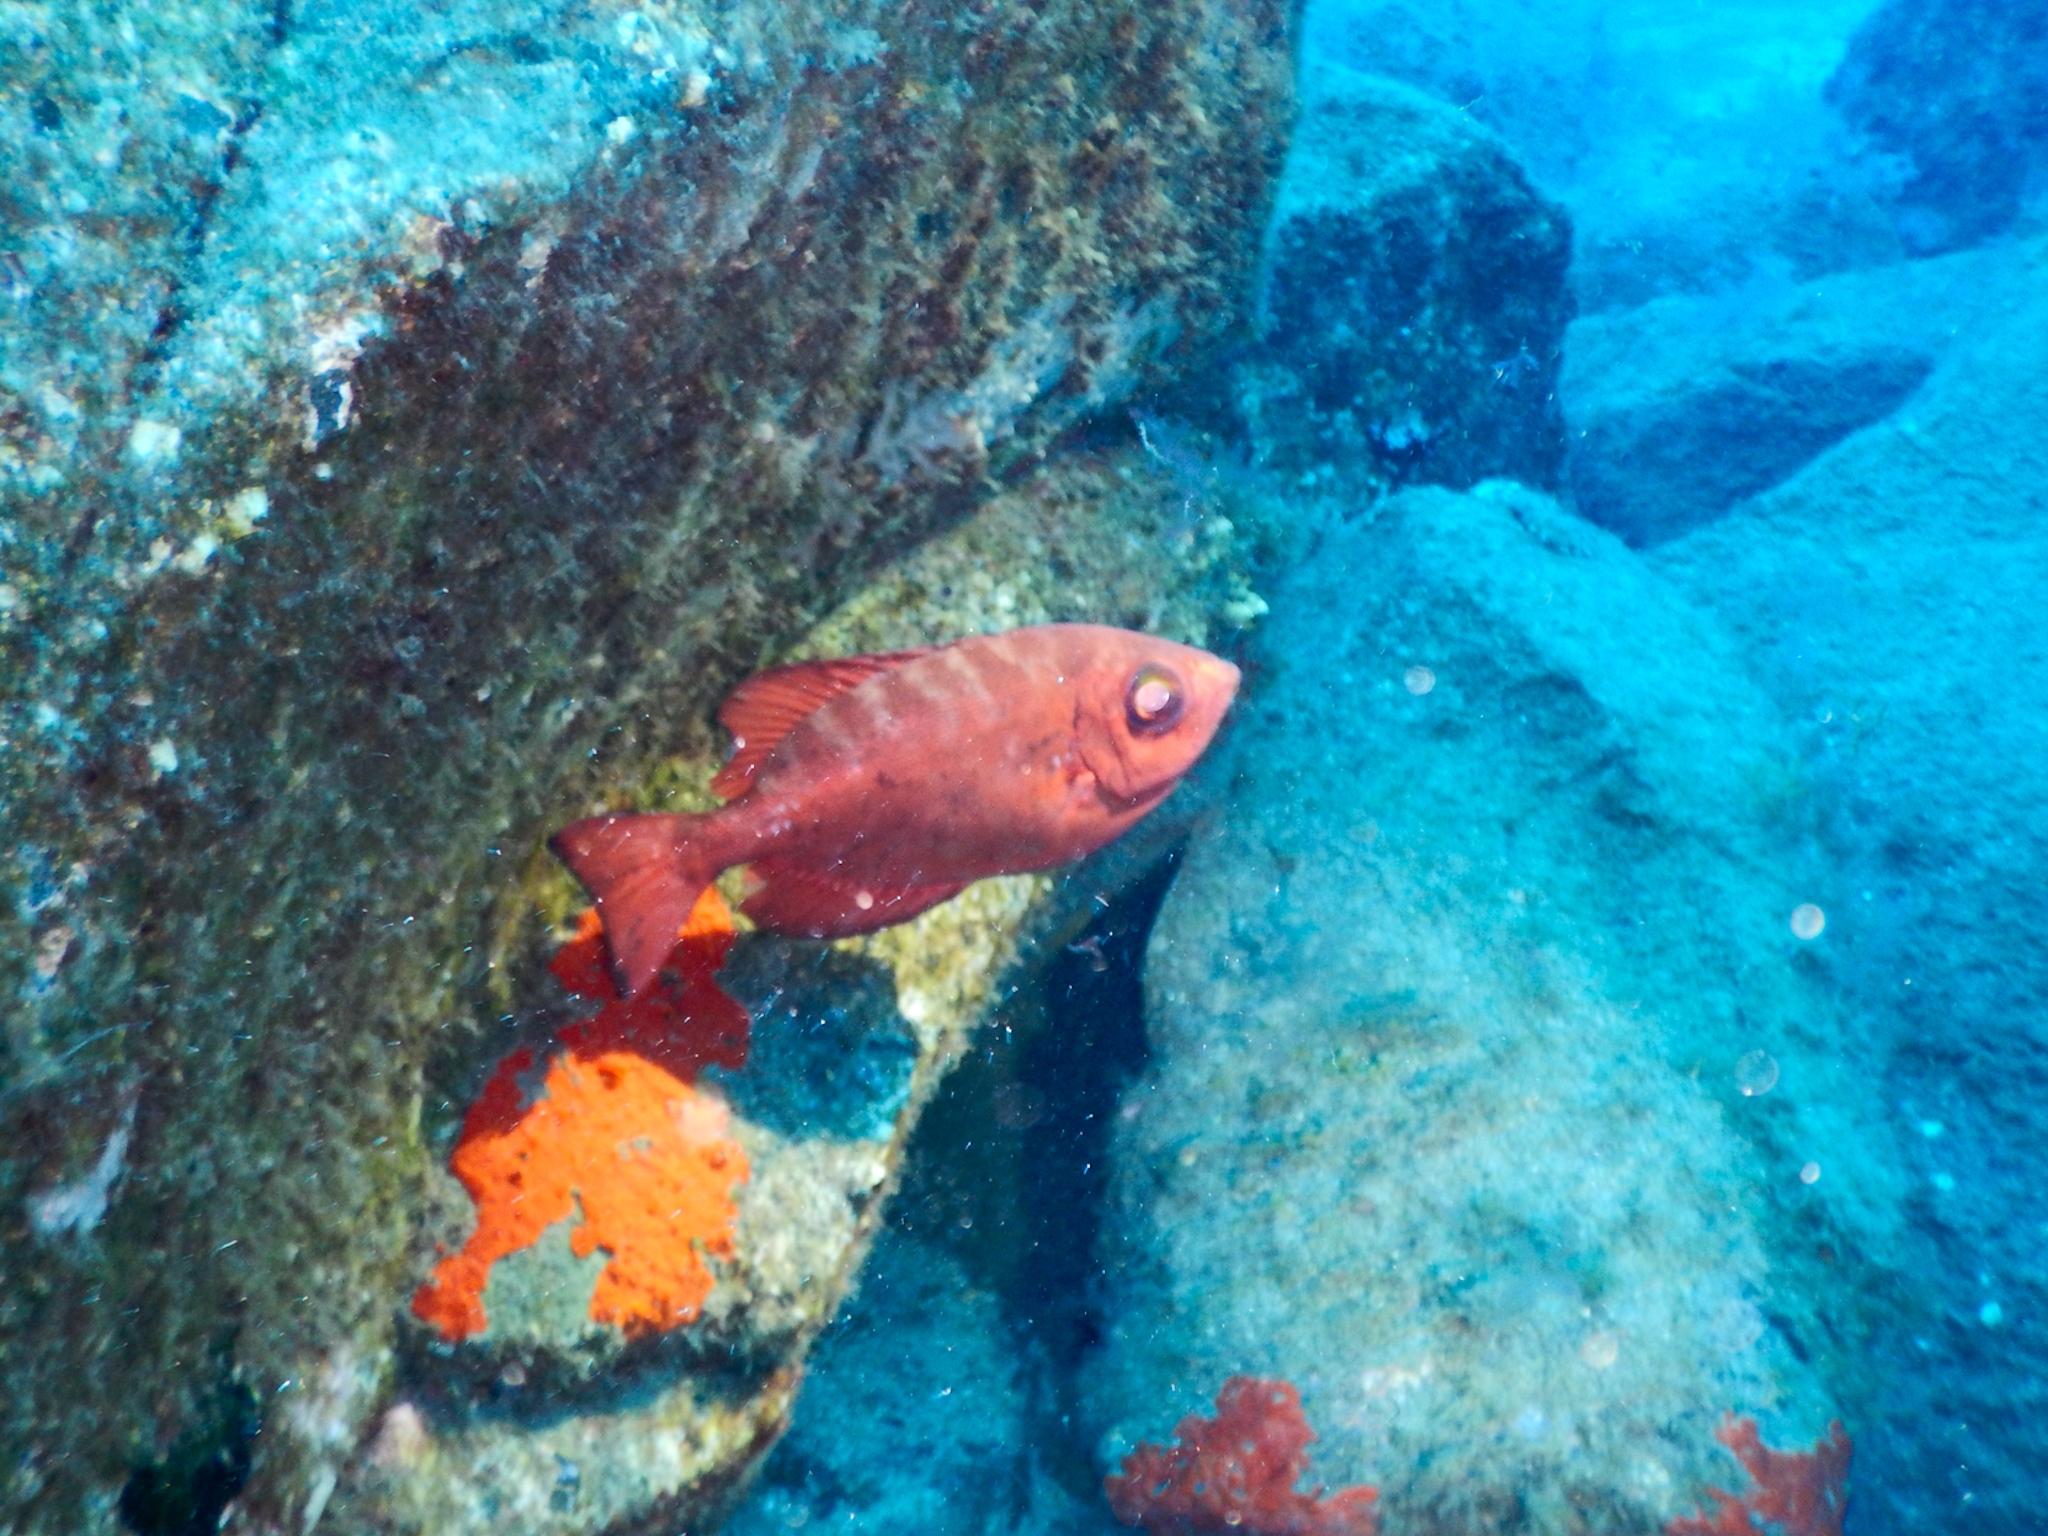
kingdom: Animalia
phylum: Chordata
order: Perciformes
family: Priacanthidae
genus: Heteropriacanthus
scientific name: Heteropriacanthus fulgens
